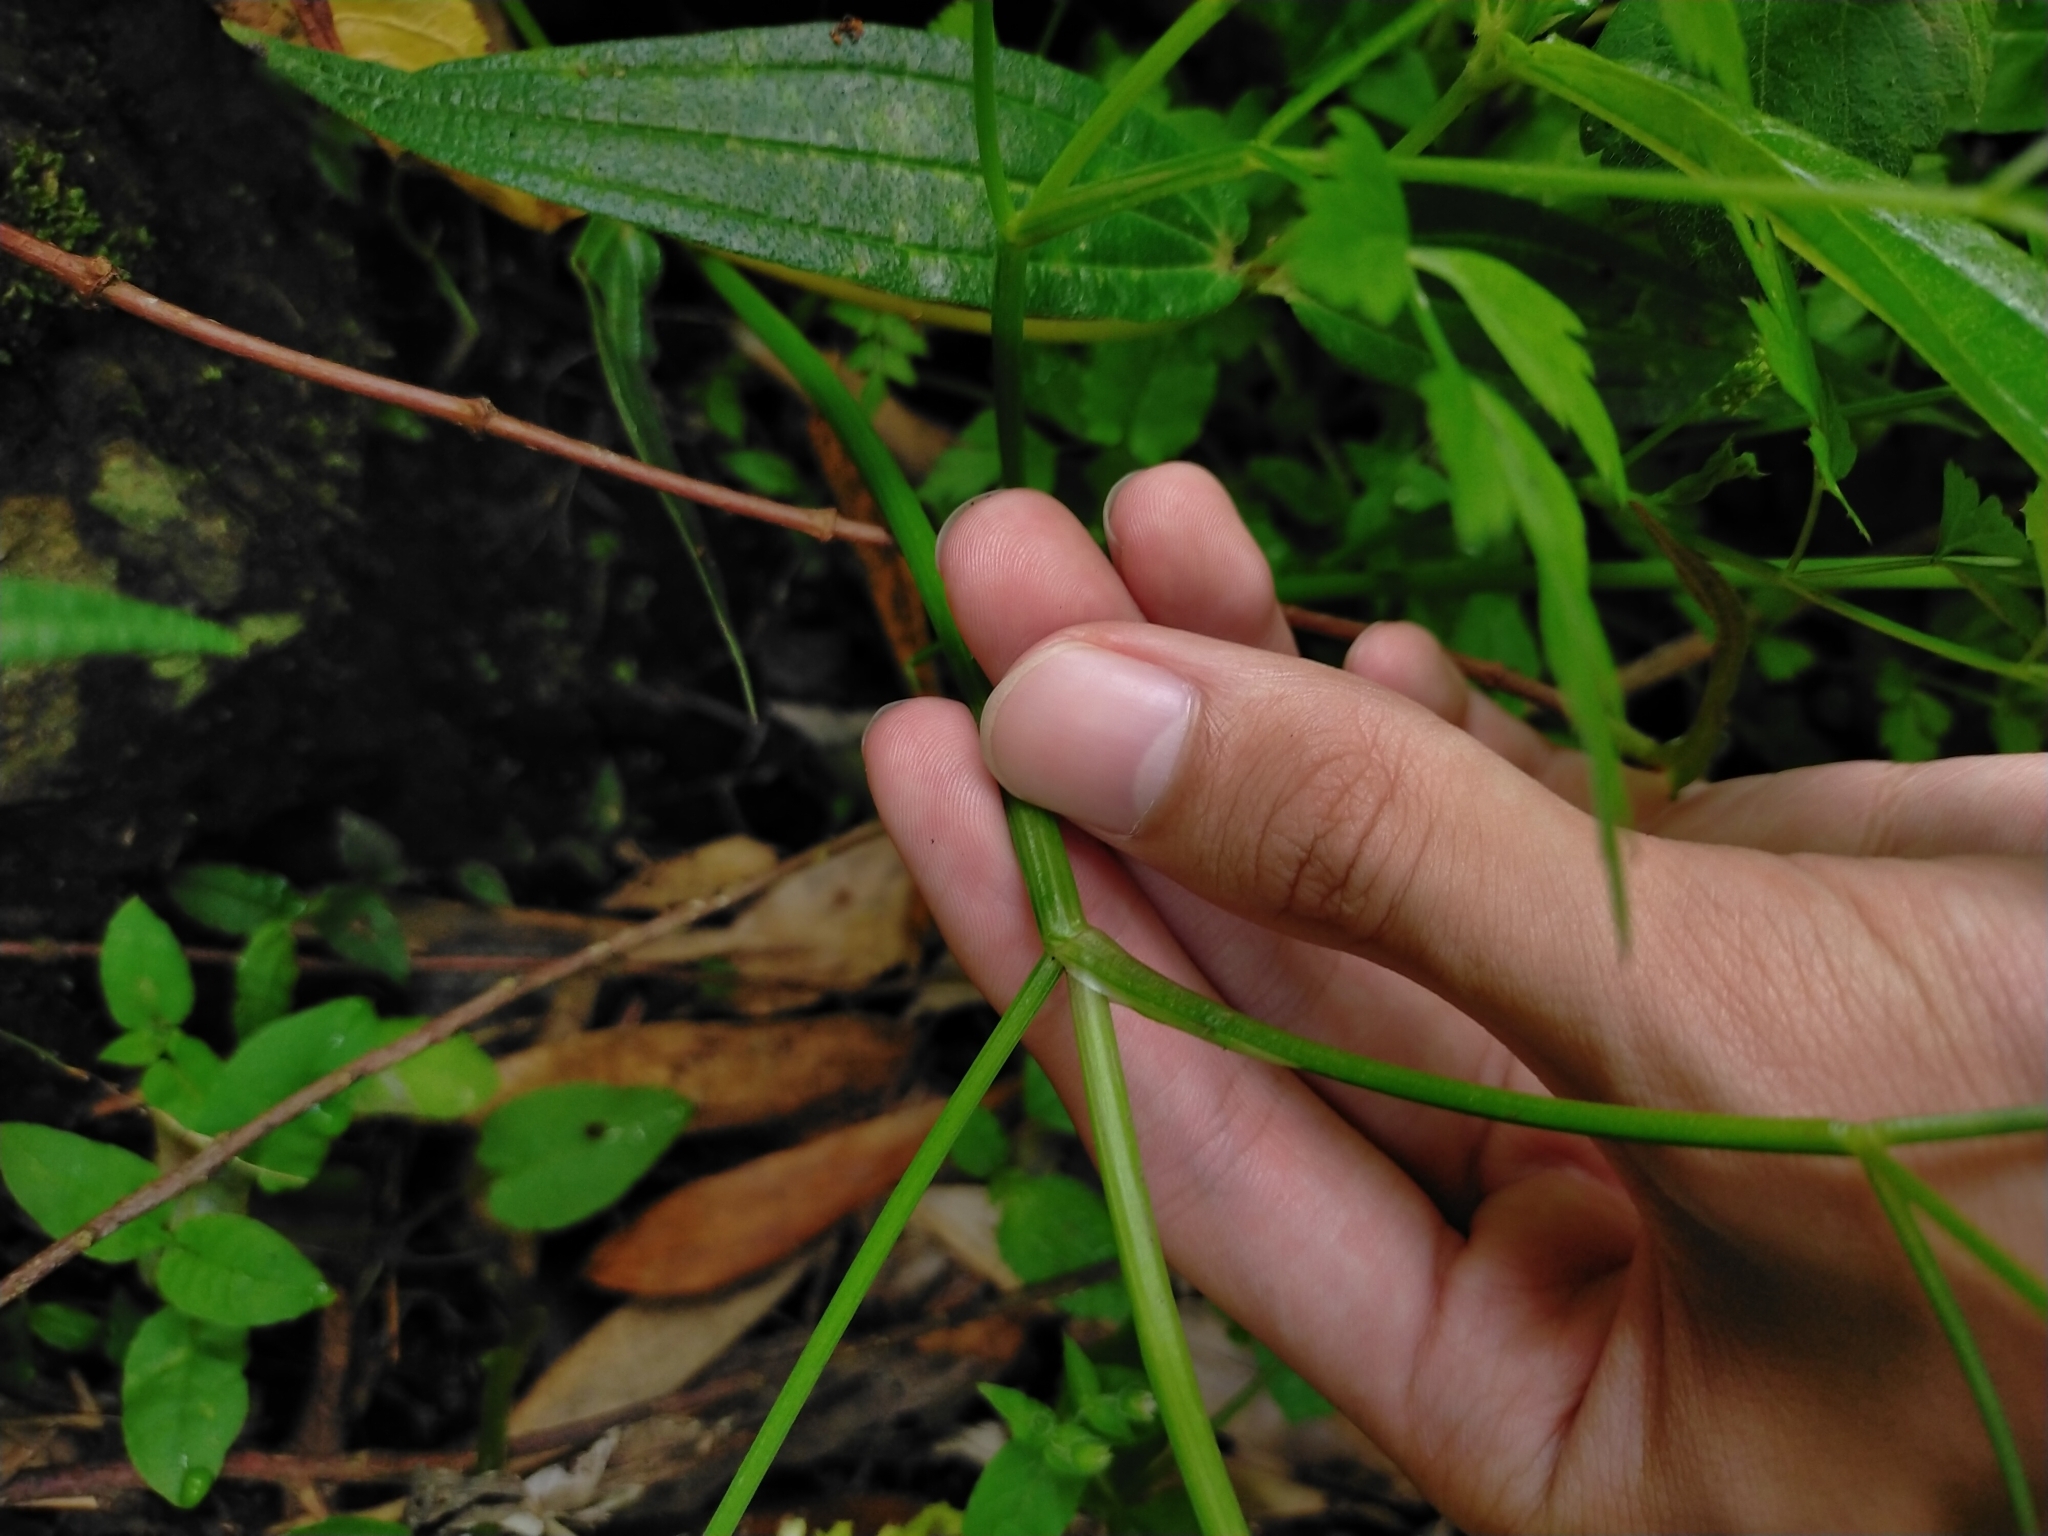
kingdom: Plantae
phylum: Tracheophyta
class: Magnoliopsida
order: Apiales
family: Apiaceae
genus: Oenanthe
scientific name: Oenanthe javanica
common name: Java water-dropwort
